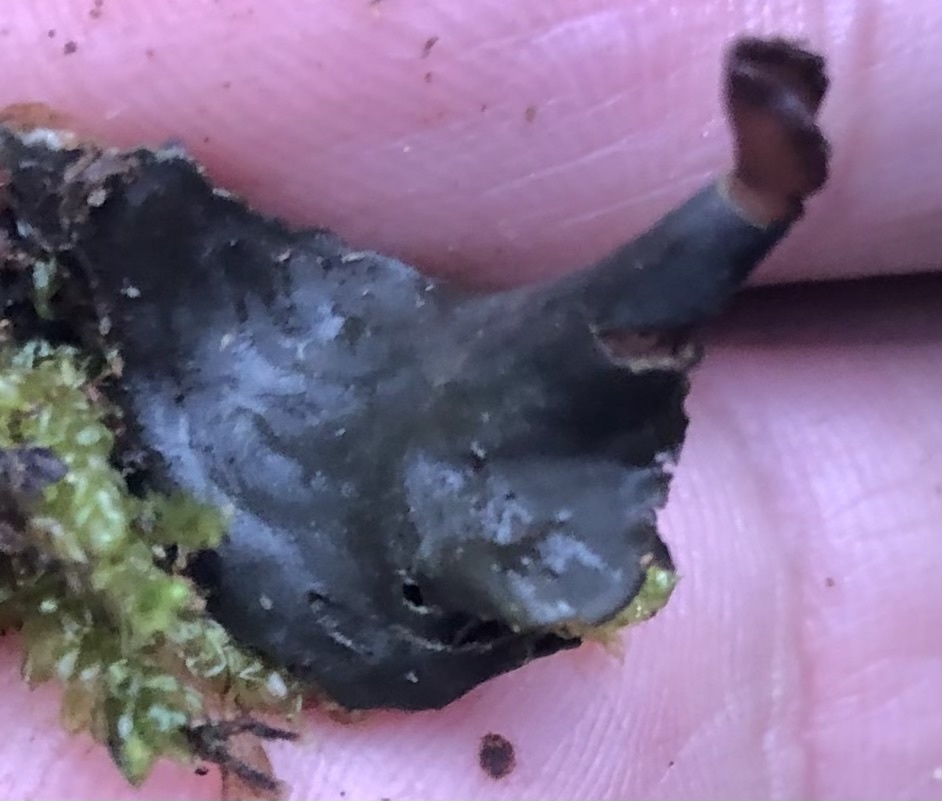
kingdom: Fungi
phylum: Ascomycota
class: Lecanoromycetes
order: Peltigerales
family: Peltigeraceae
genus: Peltigera
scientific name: Peltigera neopolydactyla
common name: Carpet pelt
